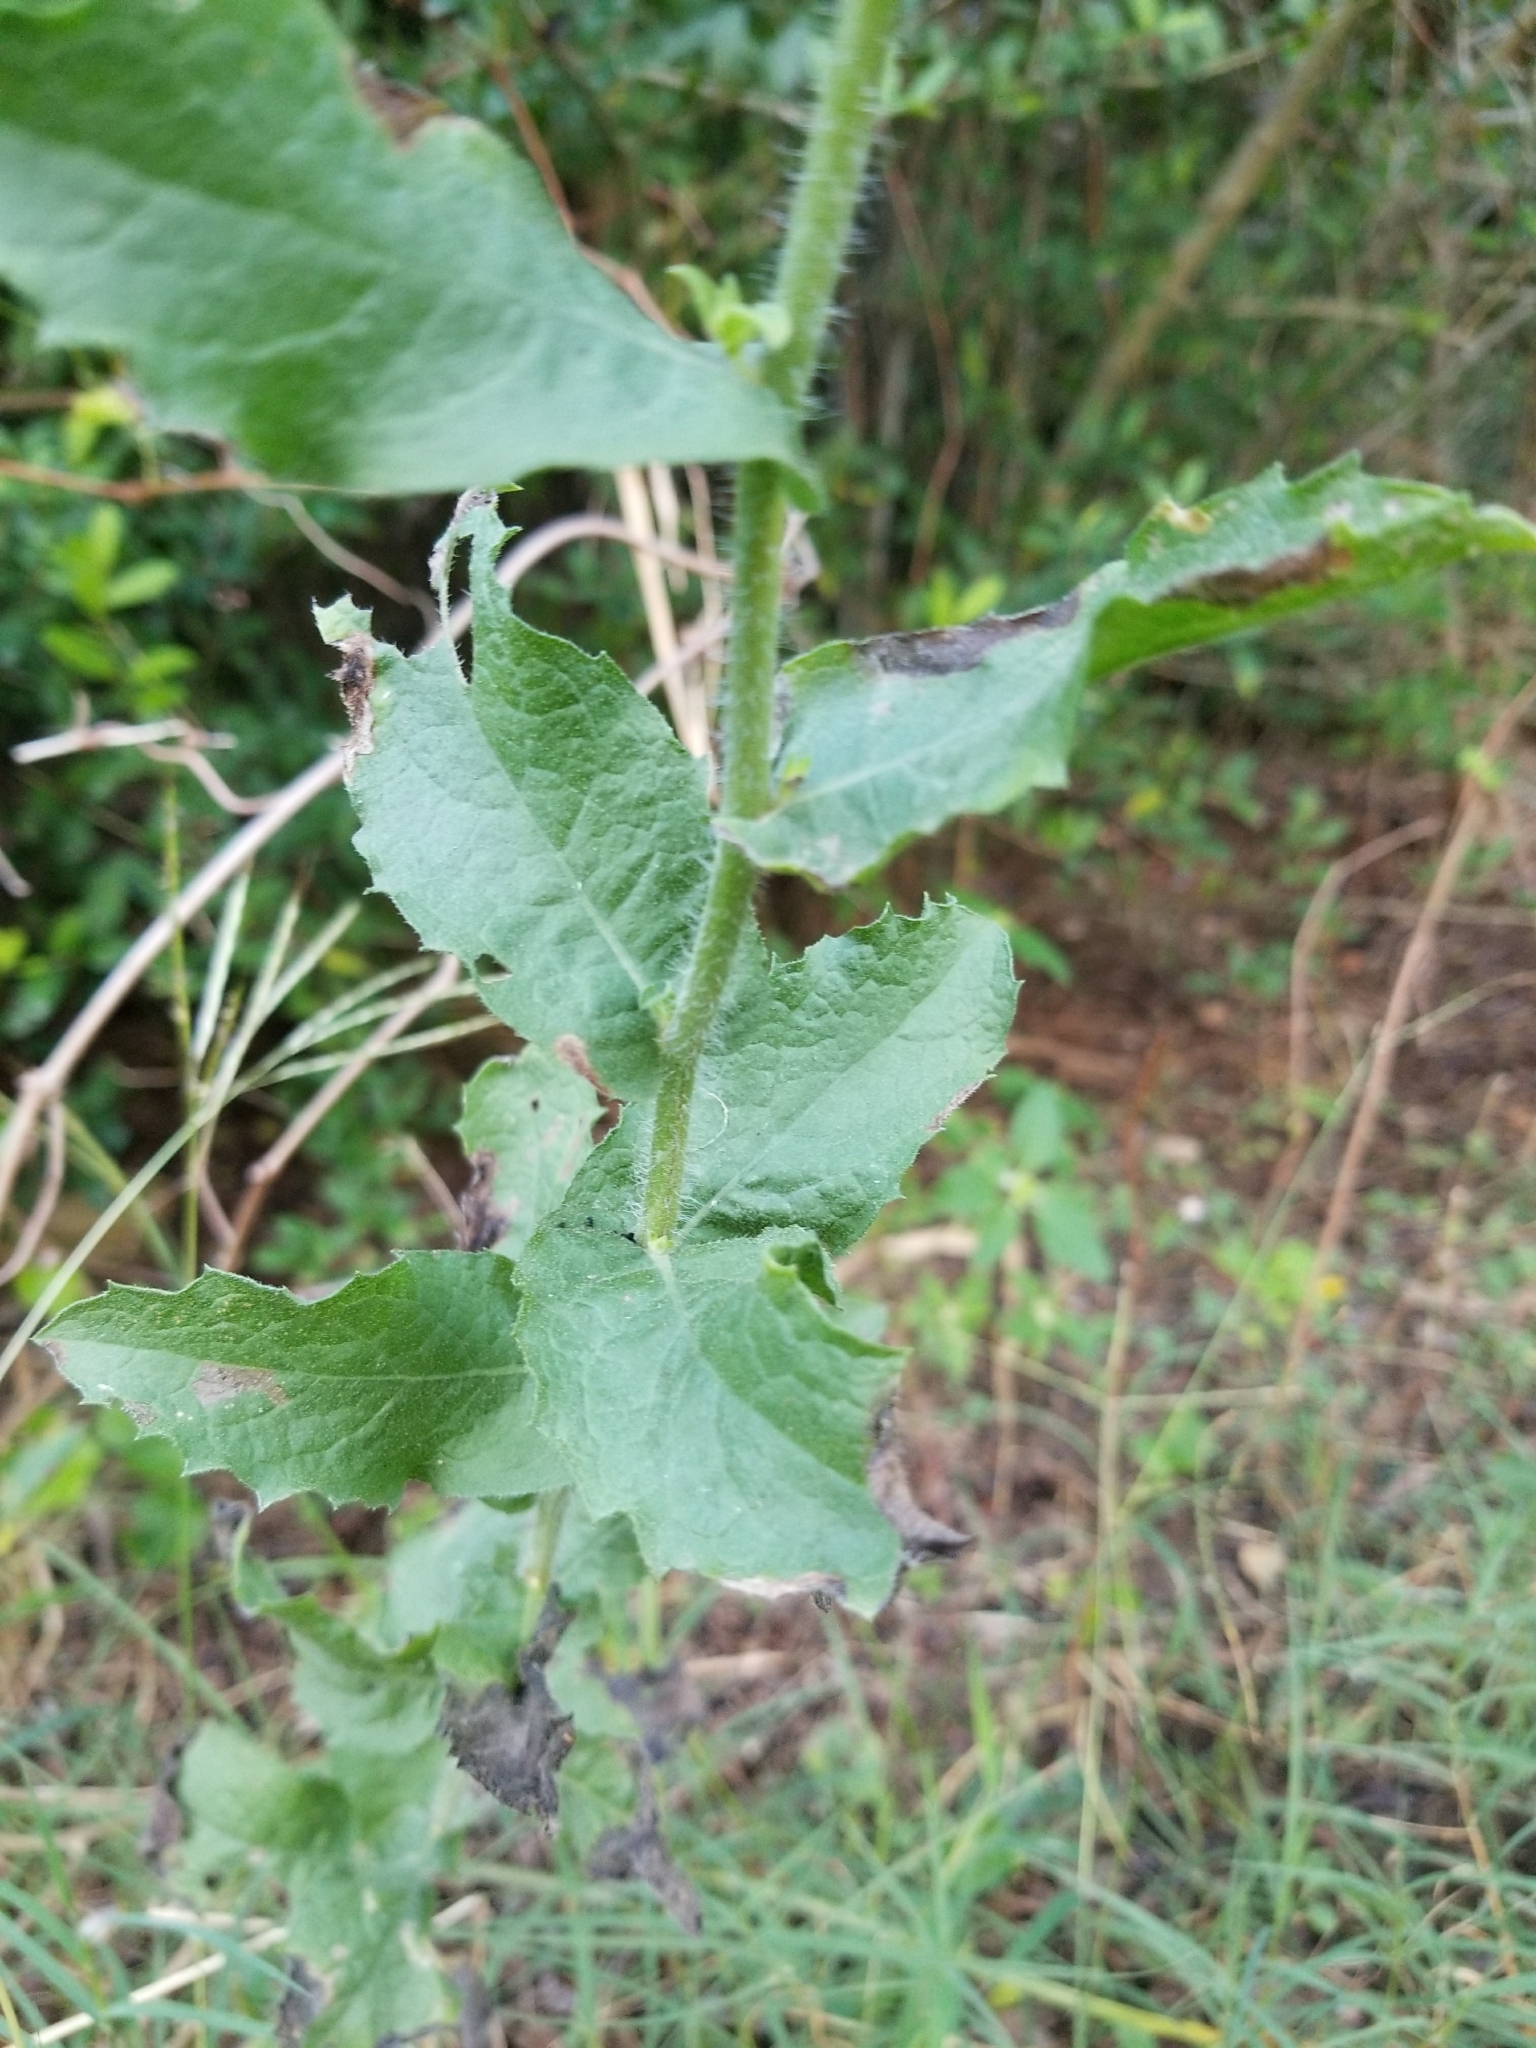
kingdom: Plantae
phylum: Tracheophyta
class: Magnoliopsida
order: Asterales
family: Asteraceae
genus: Heterotheca
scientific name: Heterotheca subaxillaris
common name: Camphorweed
